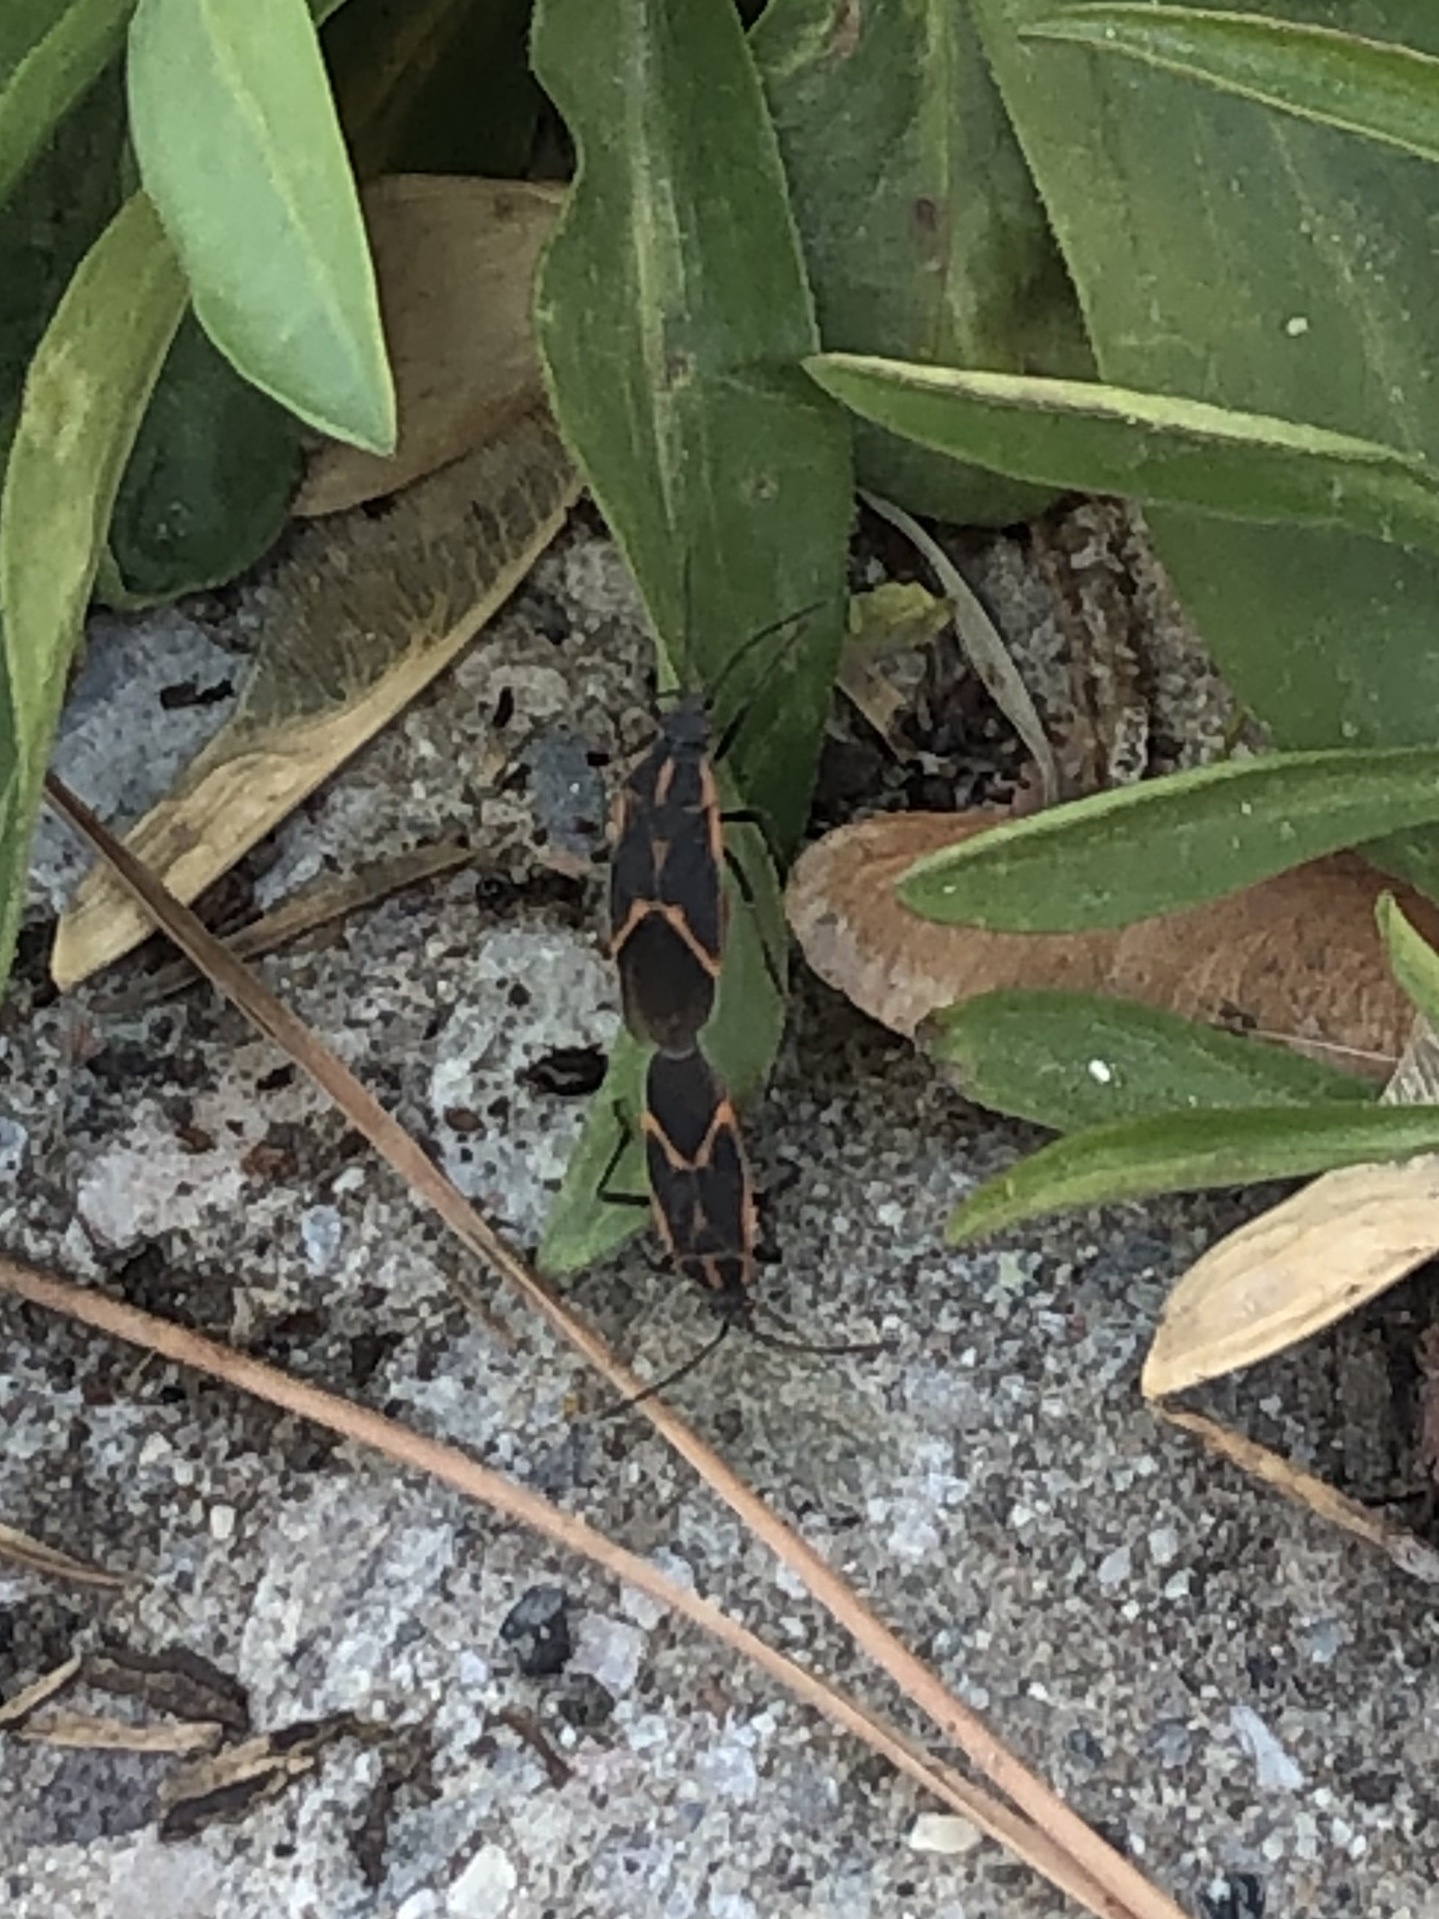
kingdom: Animalia
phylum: Arthropoda
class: Insecta
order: Hemiptera
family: Rhopalidae
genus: Boisea
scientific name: Boisea trivittata
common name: Boxelder bug
